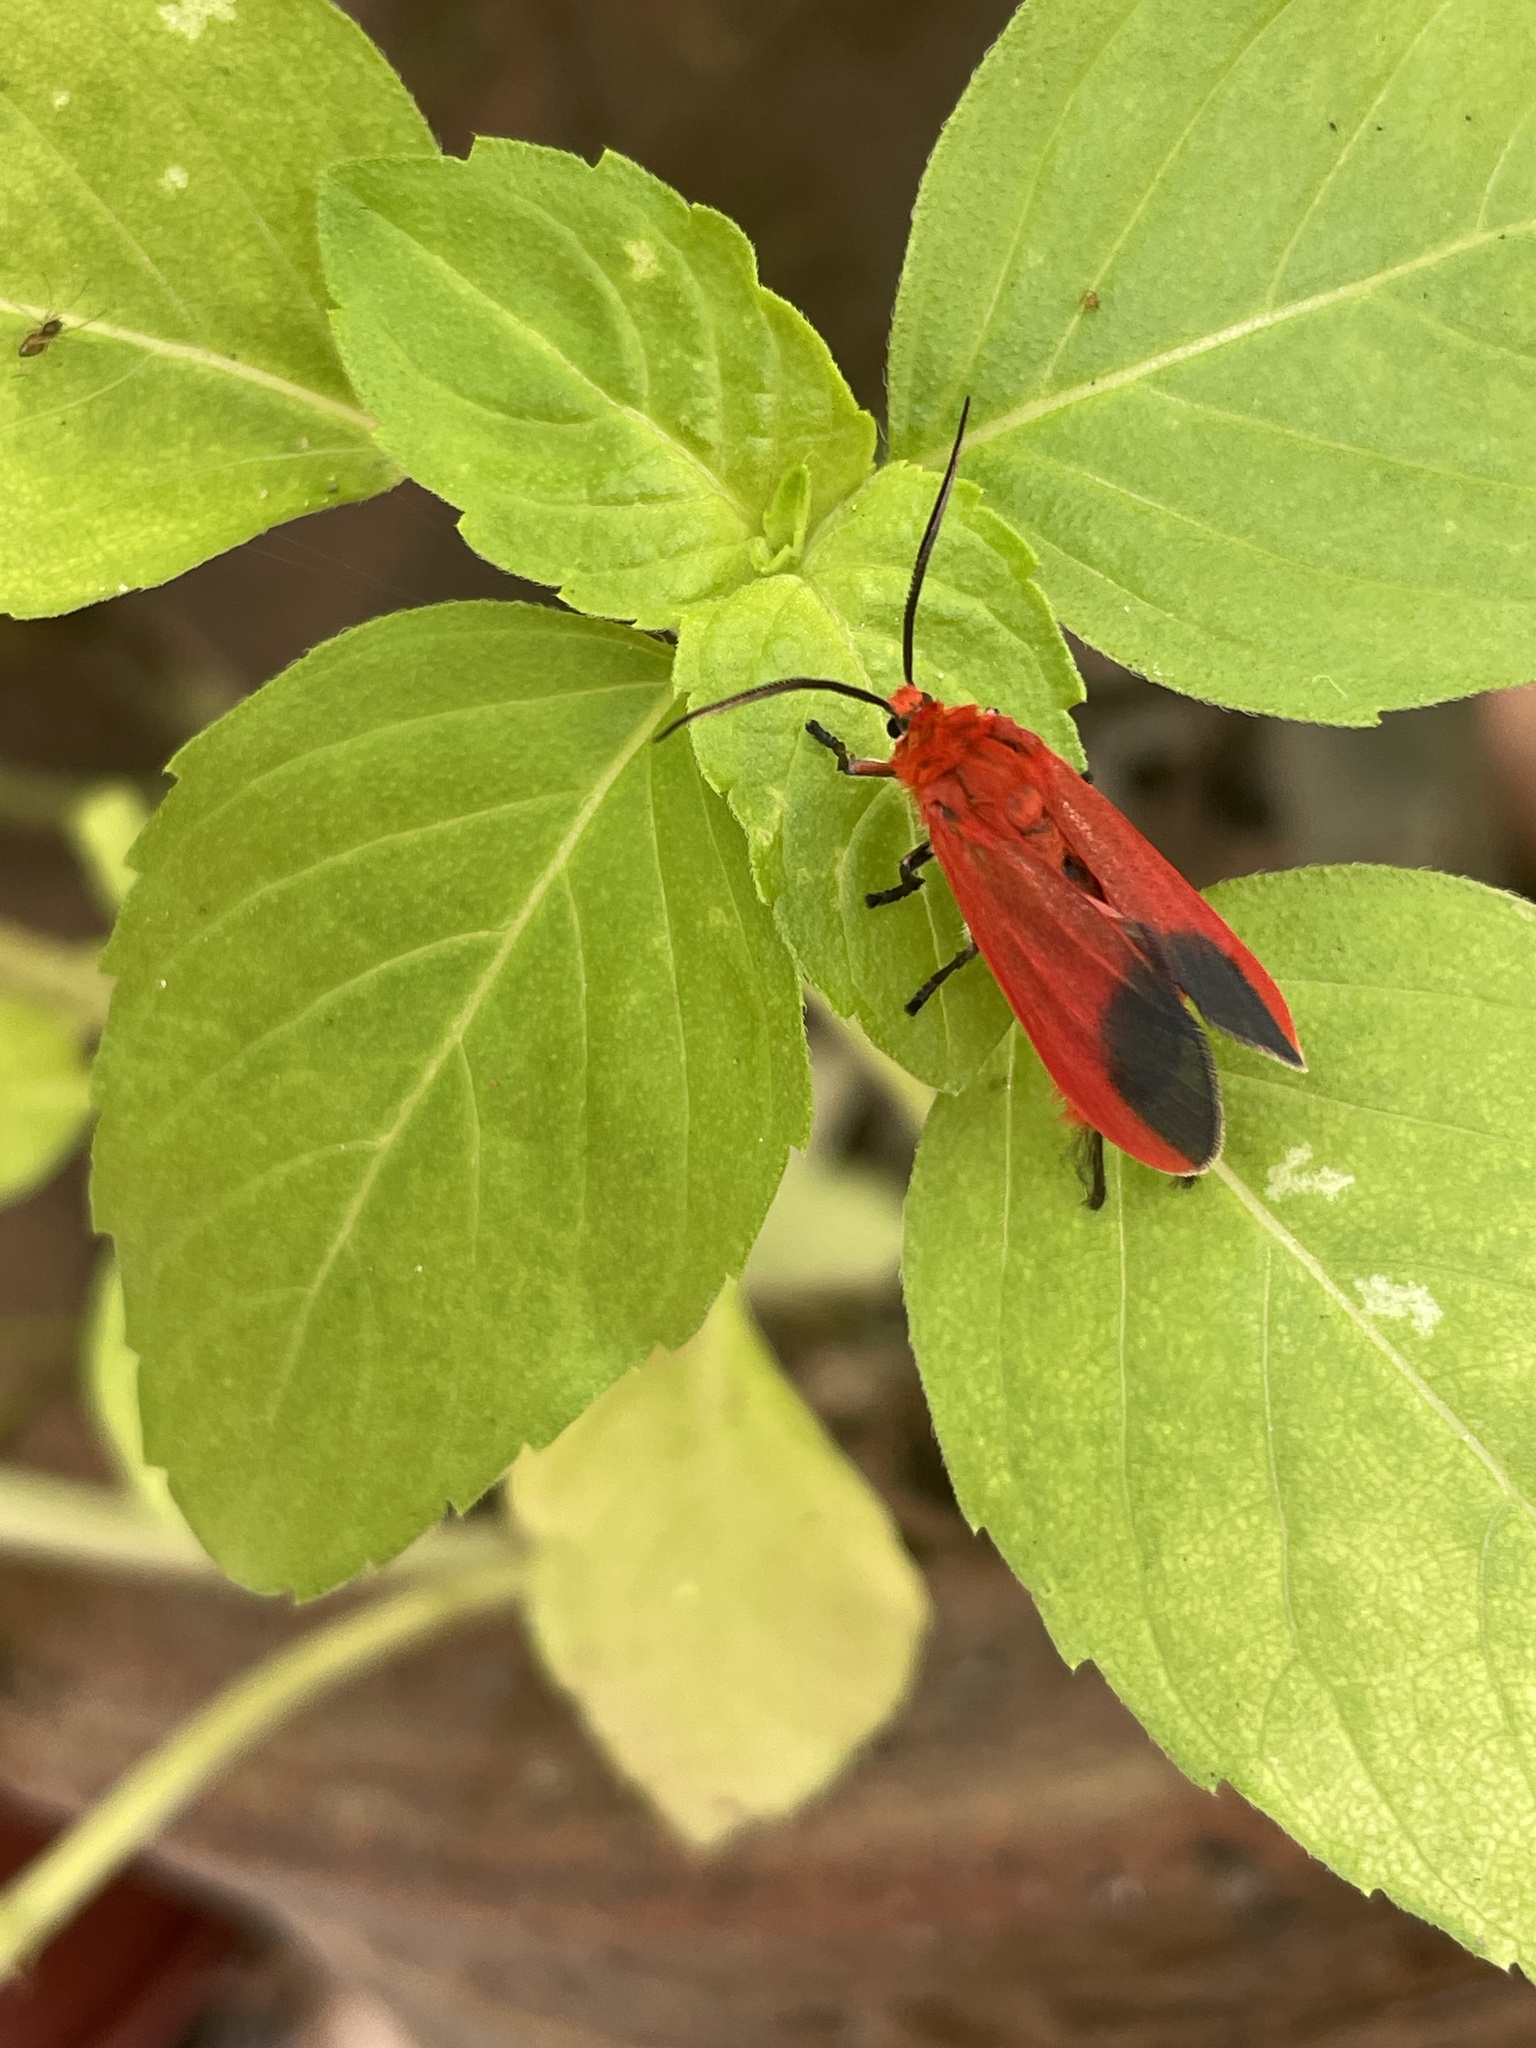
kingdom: Animalia
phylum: Arthropoda
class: Insecta
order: Lepidoptera
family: Phaudidae
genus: Phauda
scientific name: Phauda flammans
